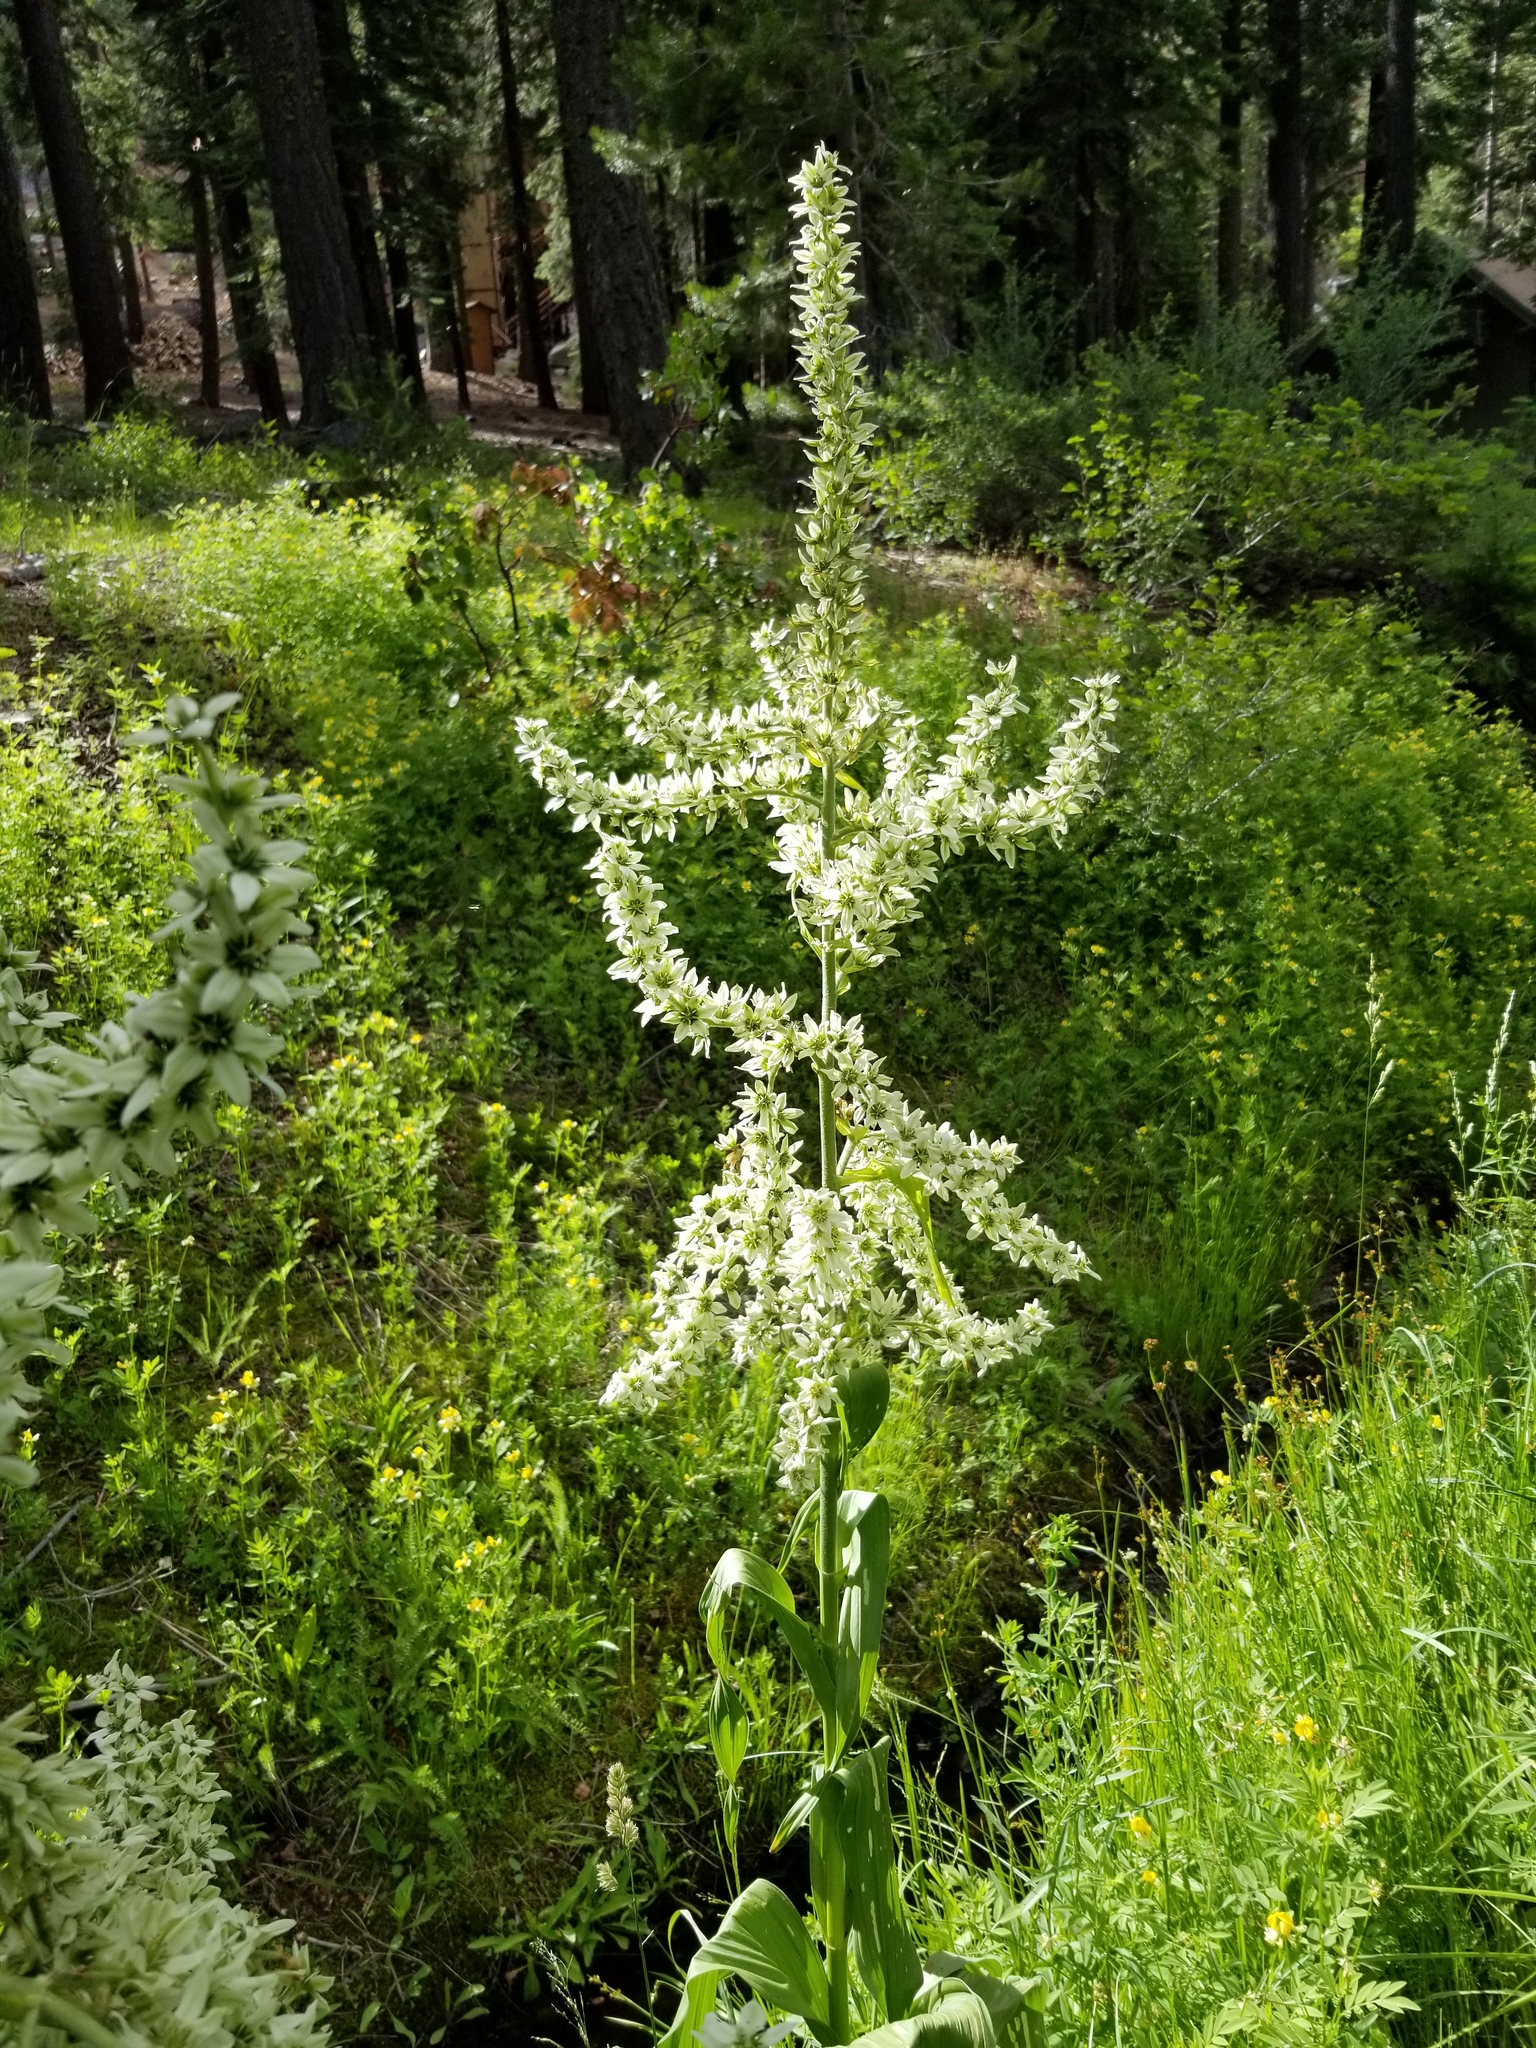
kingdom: Plantae
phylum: Tracheophyta
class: Liliopsida
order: Liliales
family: Melanthiaceae
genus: Veratrum
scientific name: Veratrum californicum
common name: California veratrum
